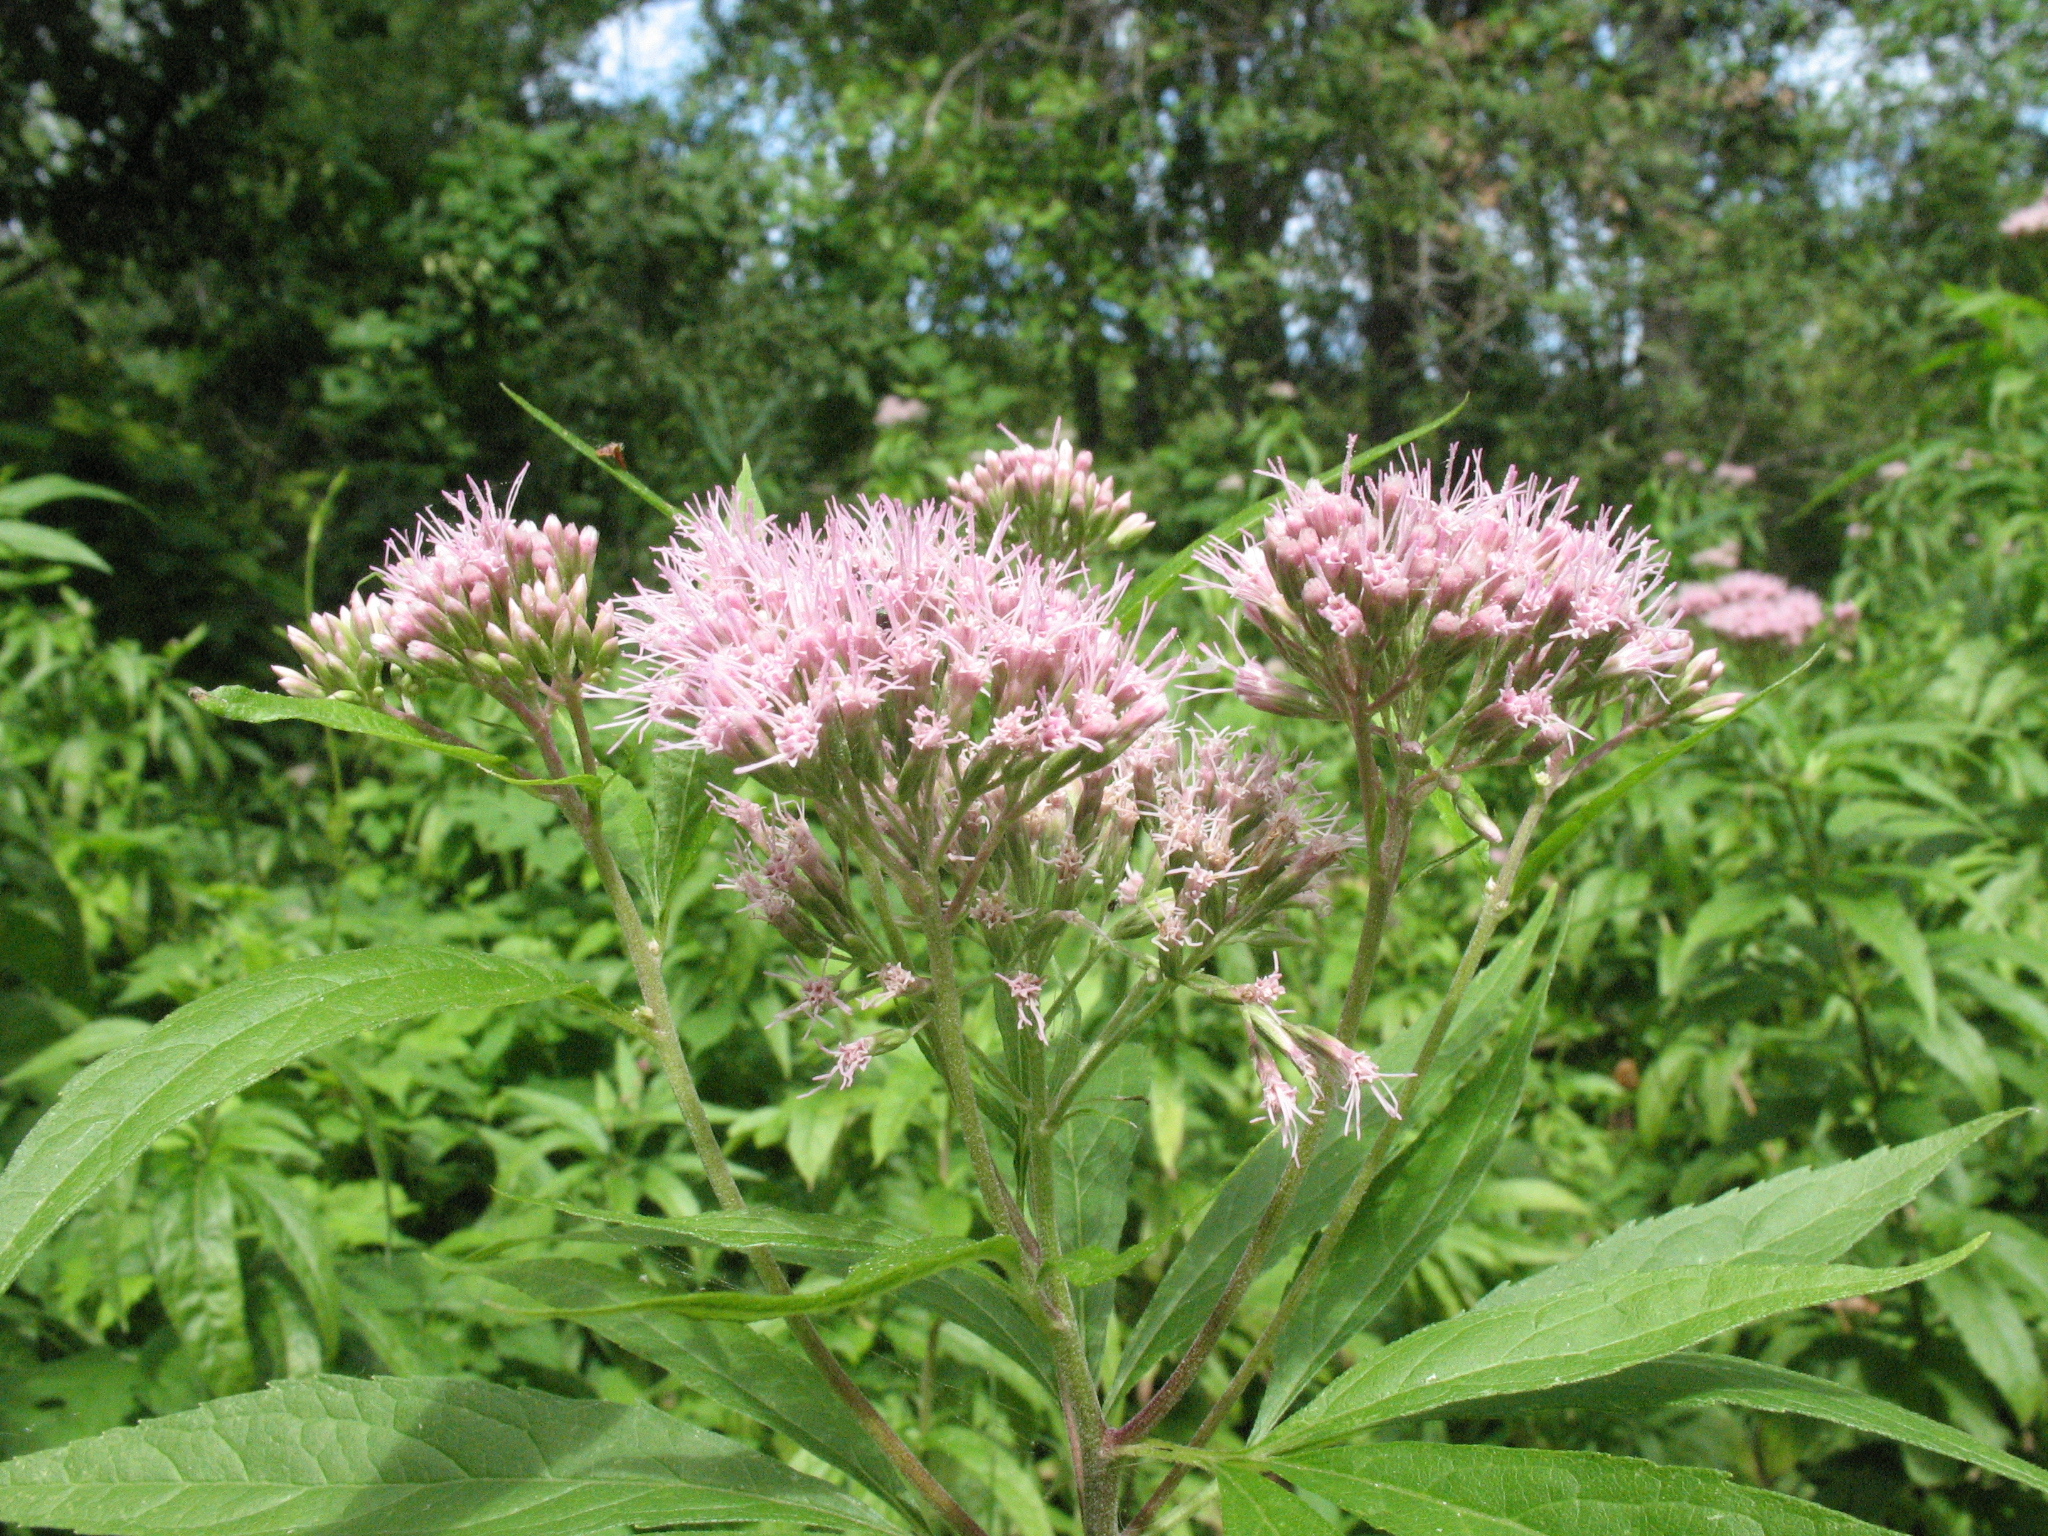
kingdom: Plantae
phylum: Tracheophyta
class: Magnoliopsida
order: Asterales
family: Asteraceae
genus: Eupatorium
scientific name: Eupatorium cannabinum
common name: Hemp-agrimony
